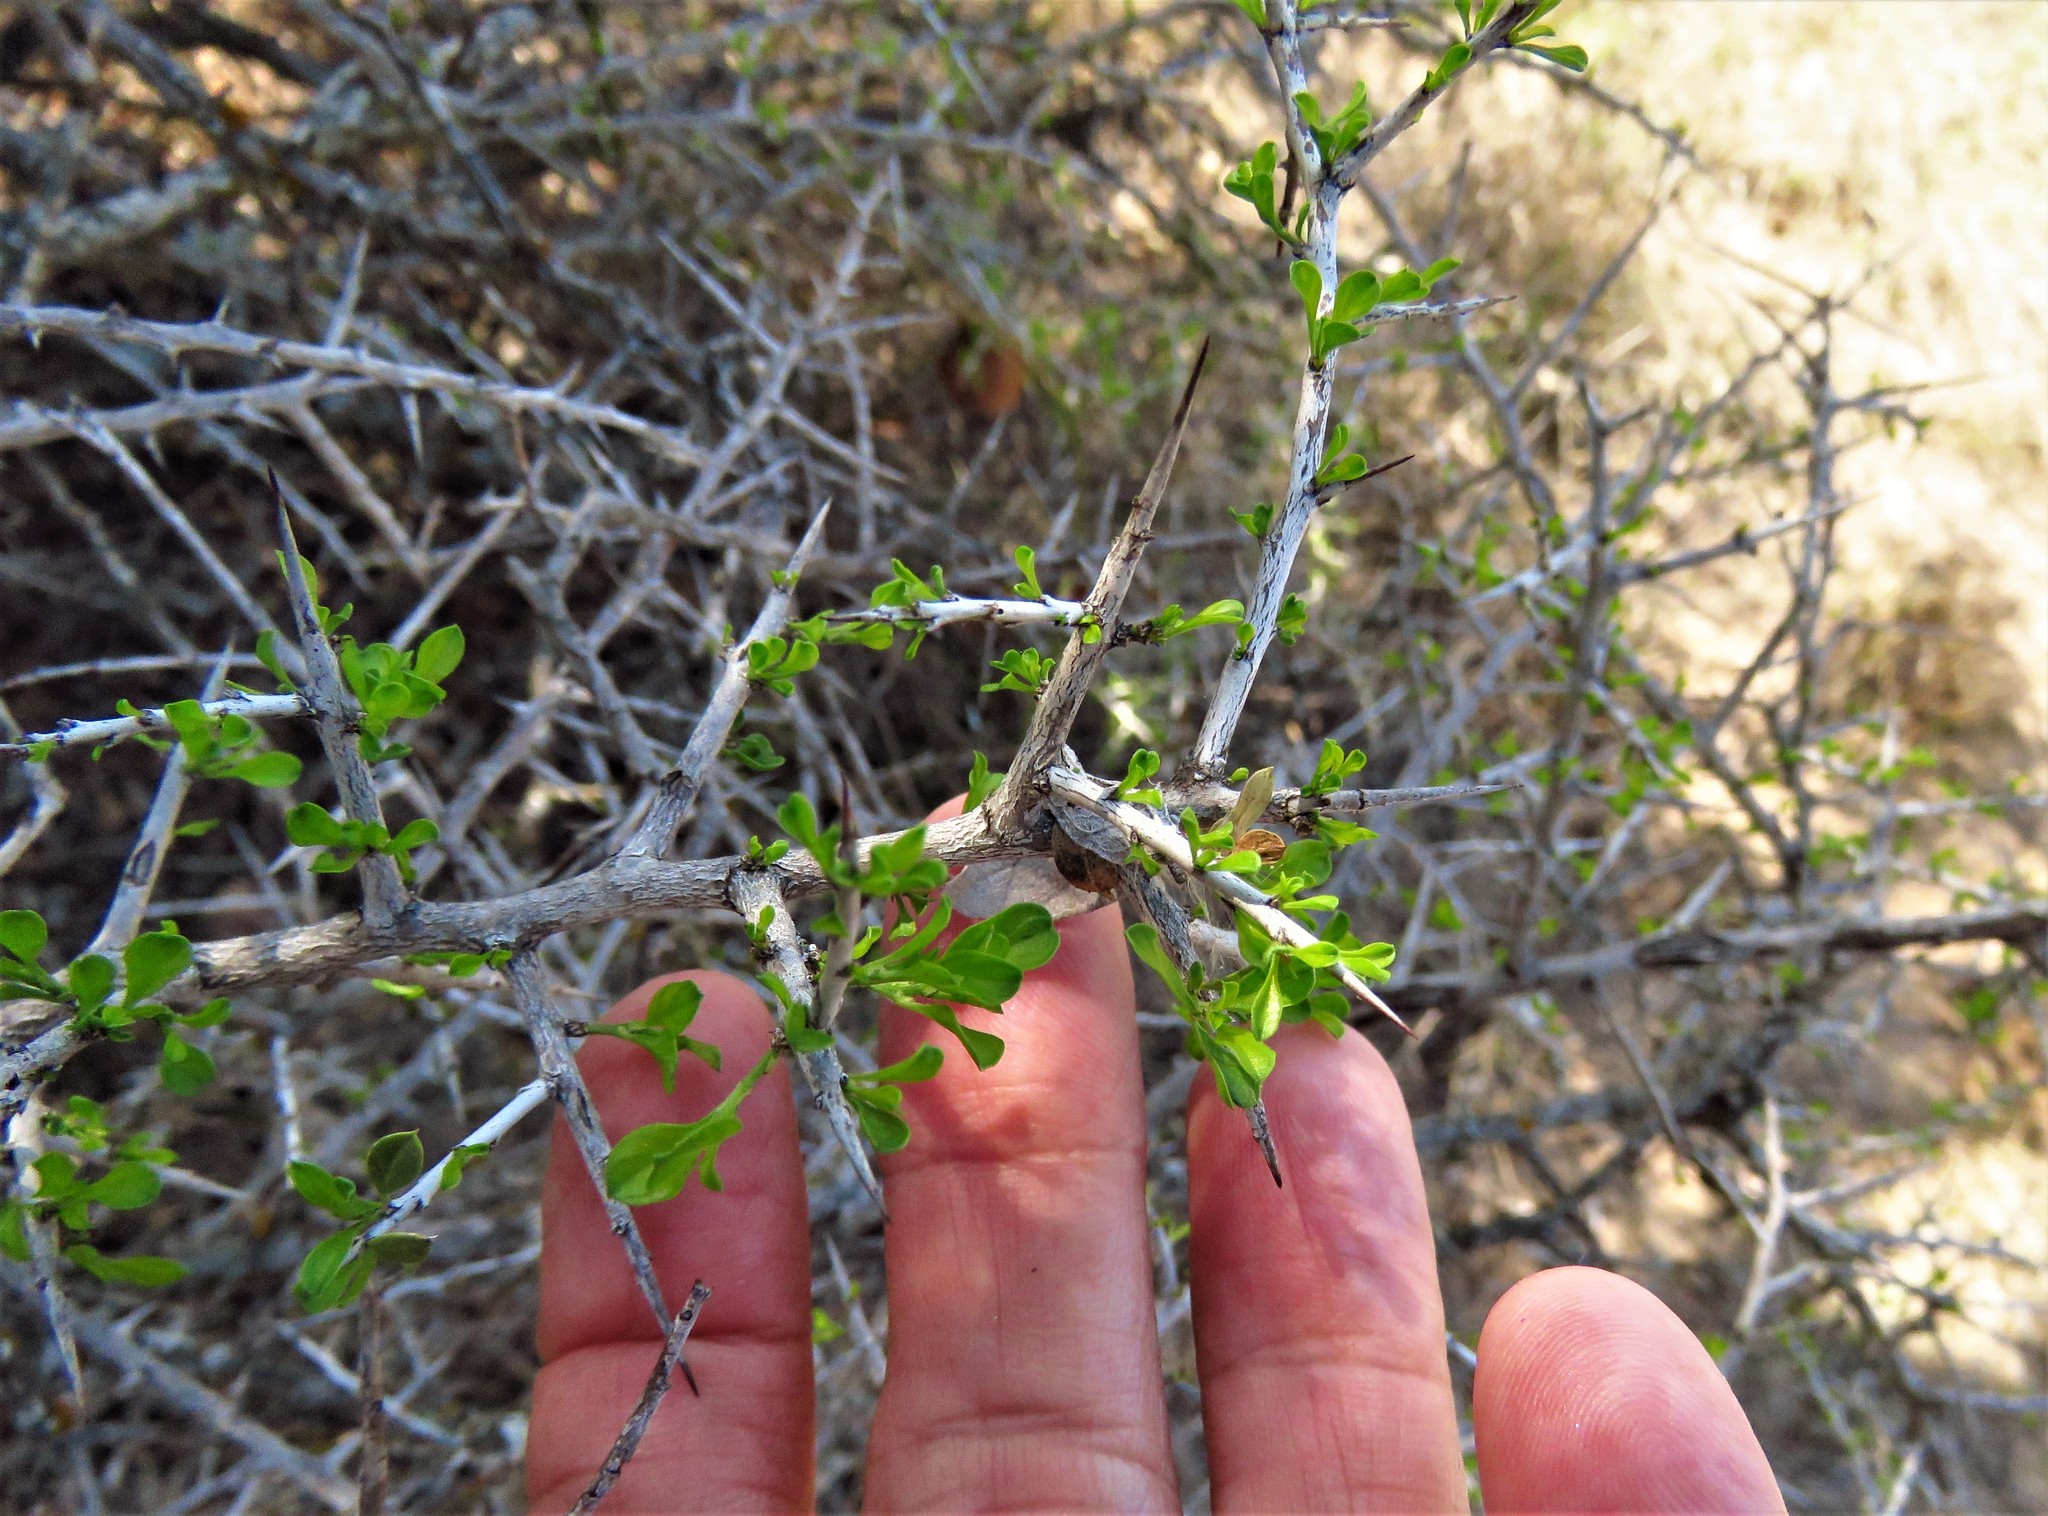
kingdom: Plantae
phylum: Tracheophyta
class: Magnoliopsida
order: Rosales
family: Rhamnaceae
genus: Condalia
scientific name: Condalia viridis
